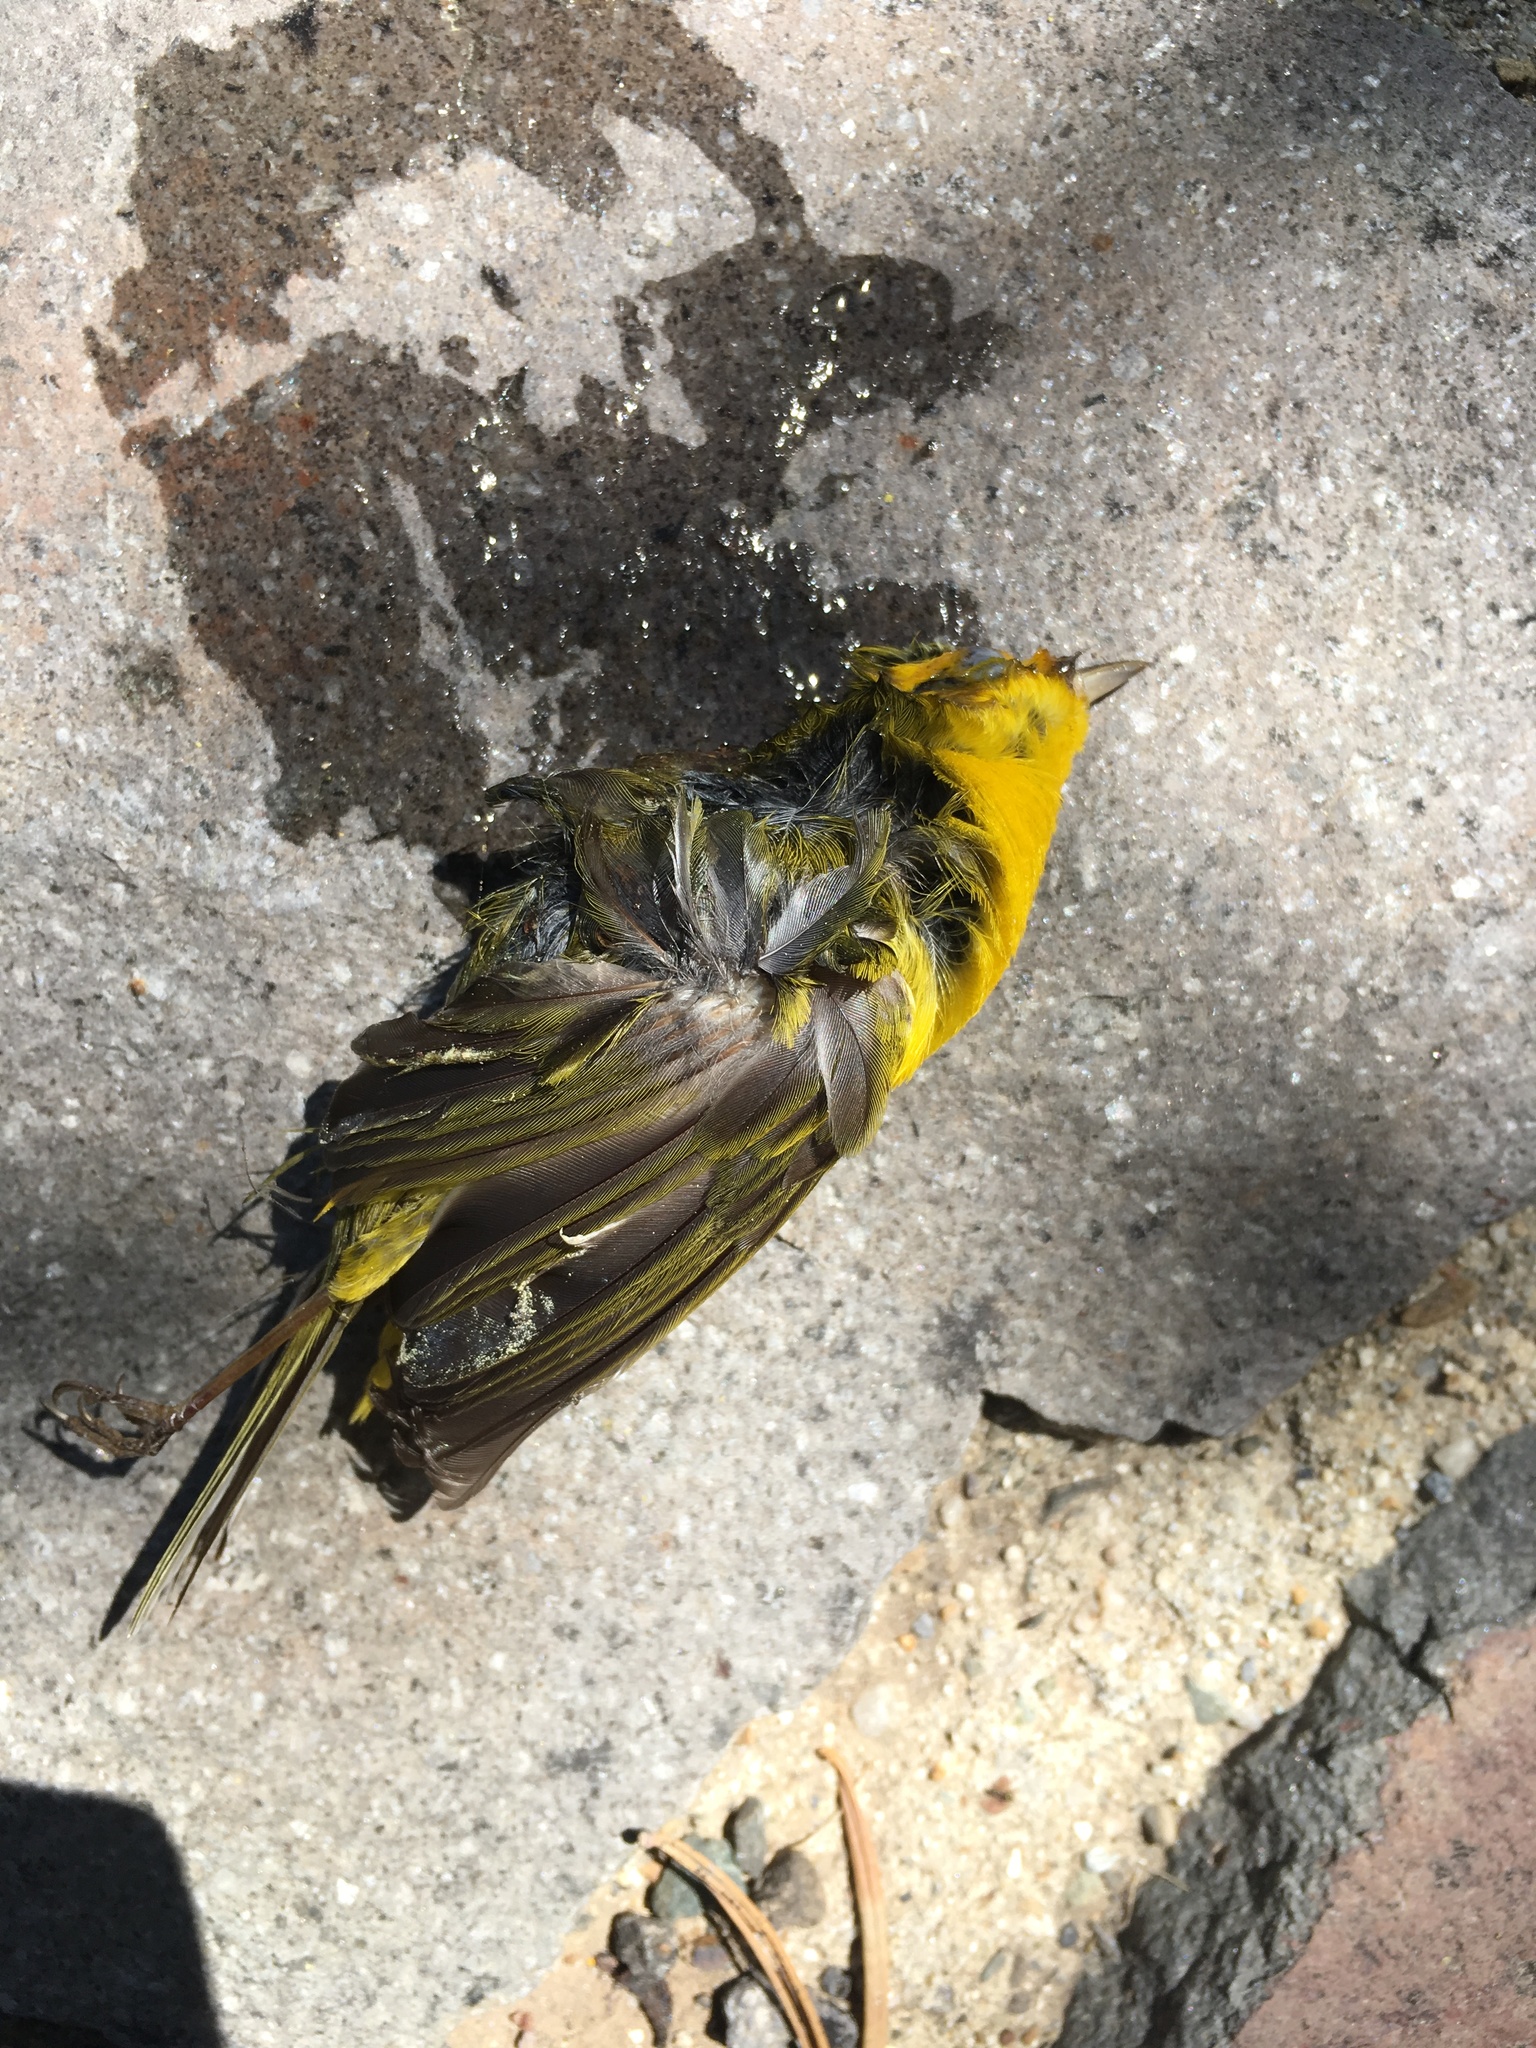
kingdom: Animalia
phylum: Chordata
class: Aves
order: Passeriformes
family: Parulidae
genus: Cardellina
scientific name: Cardellina pusilla
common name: Wilson's warbler
